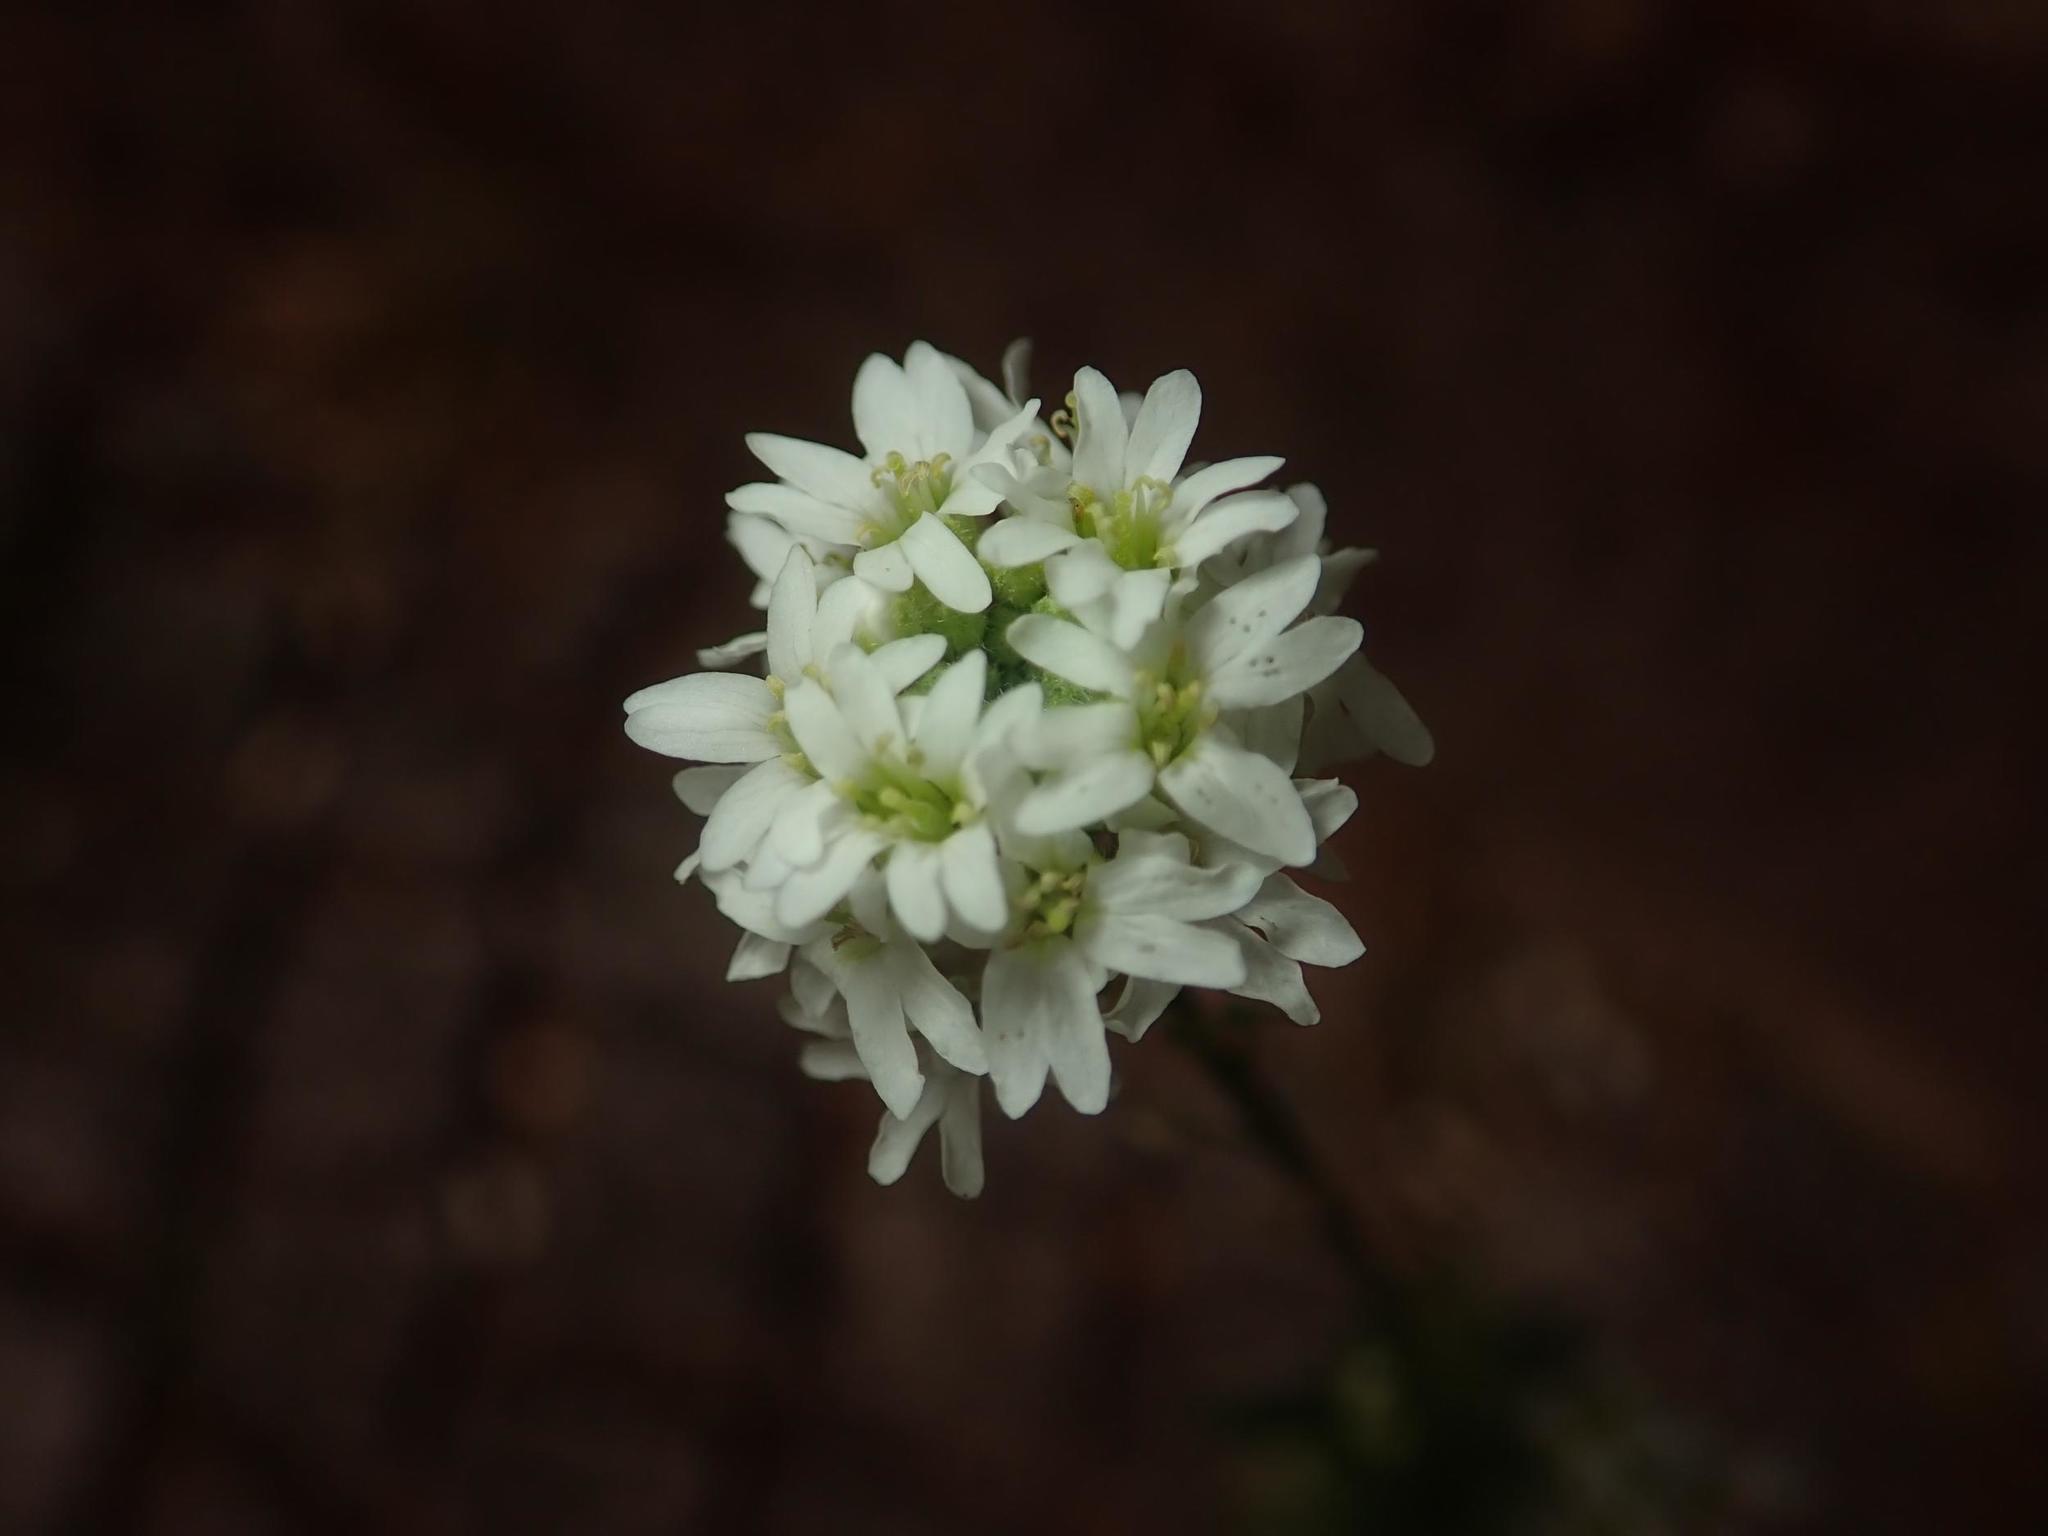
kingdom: Plantae
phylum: Tracheophyta
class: Magnoliopsida
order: Brassicales
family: Brassicaceae
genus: Berteroa
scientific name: Berteroa incana
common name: Hoary alison
